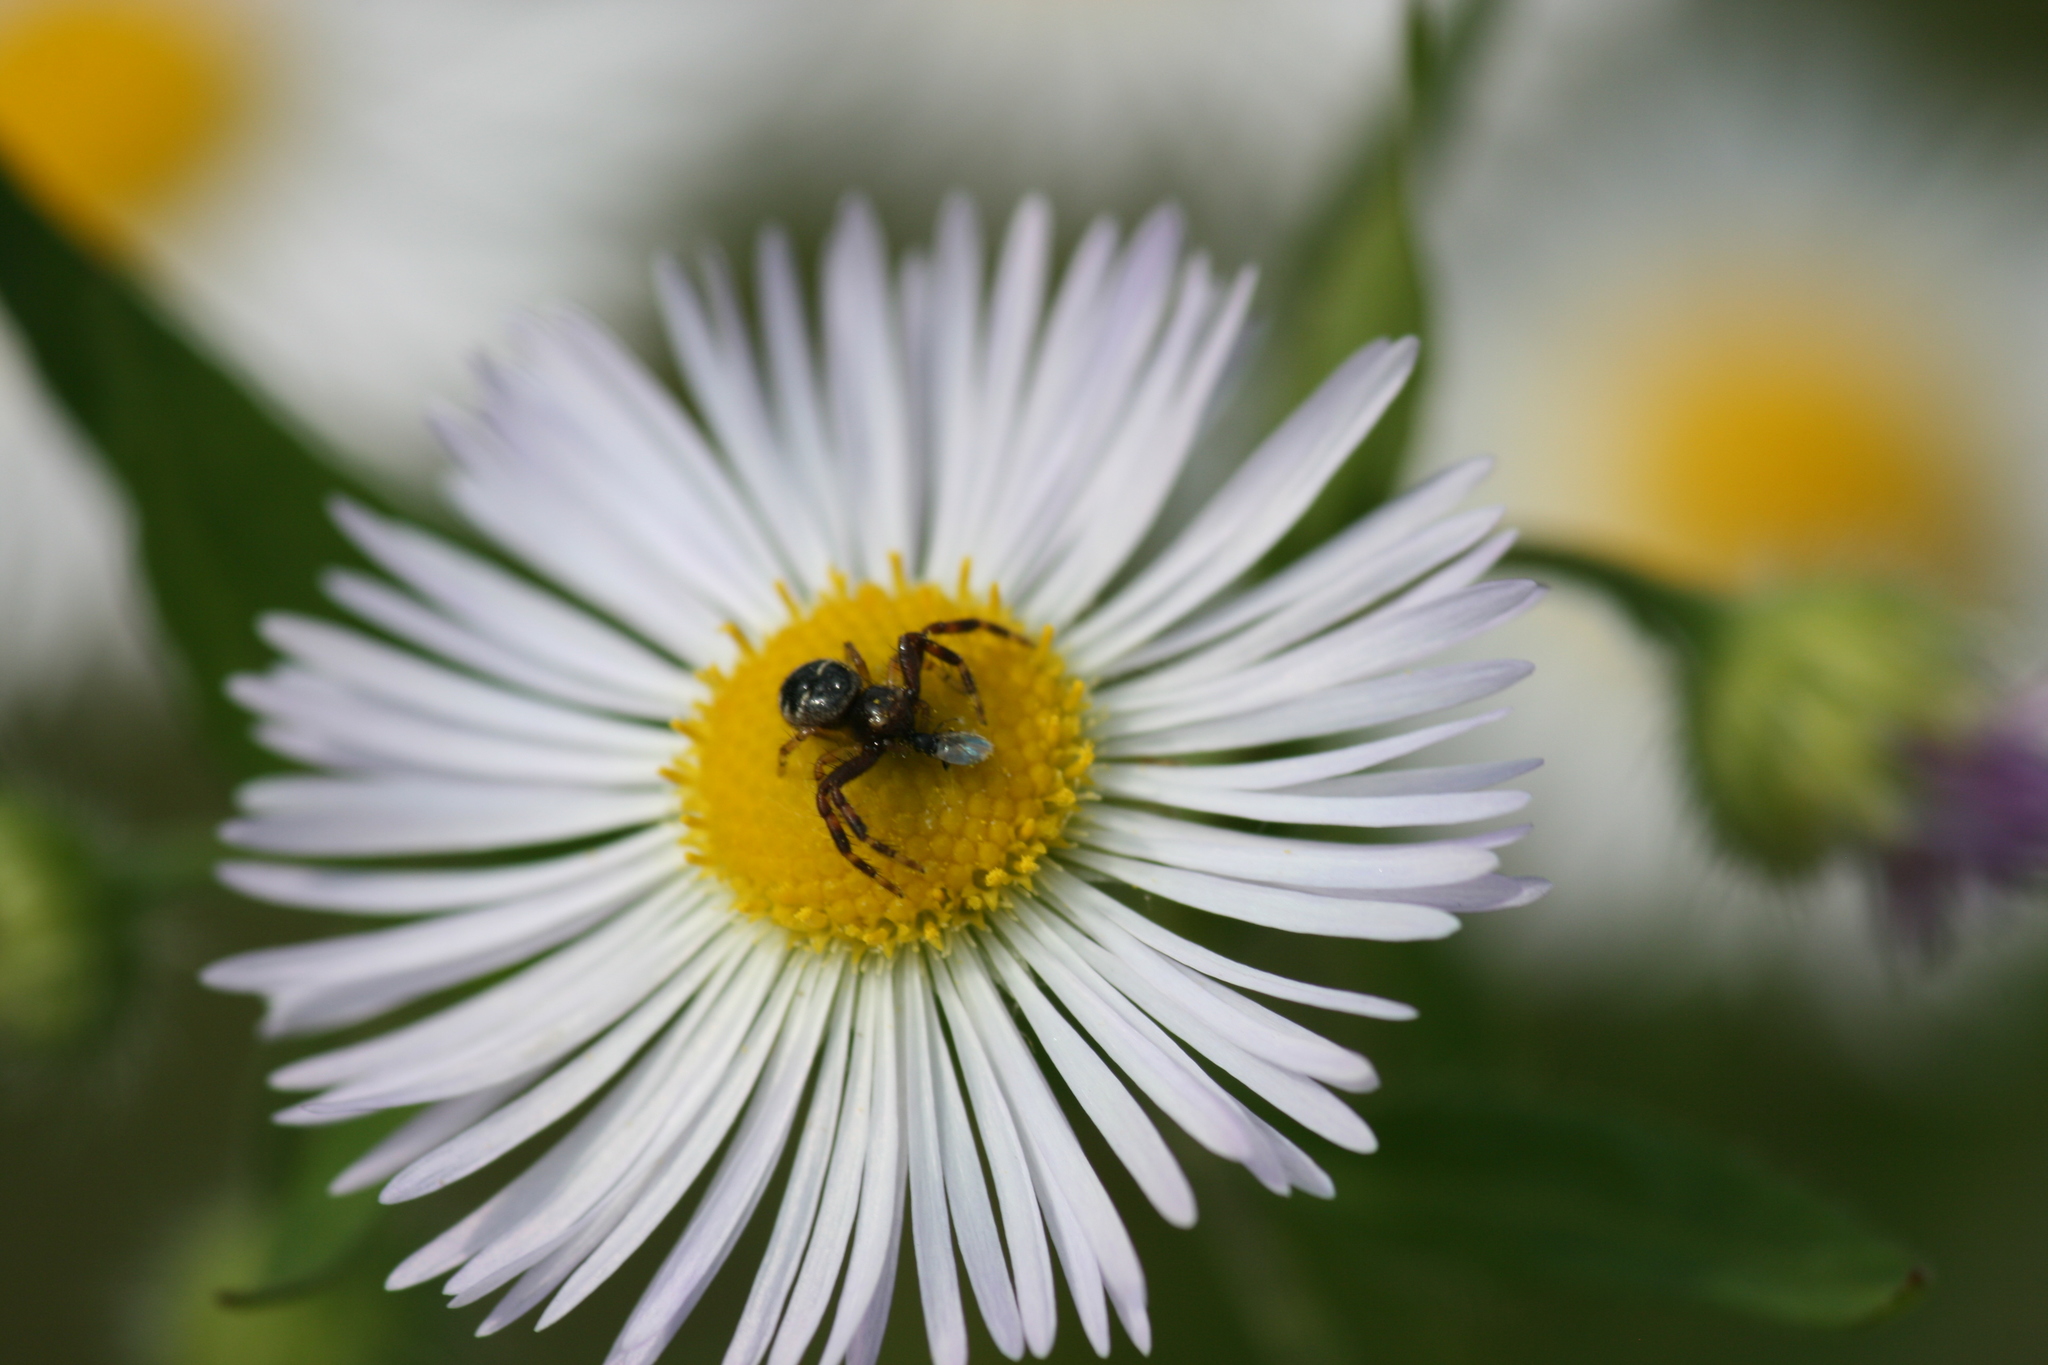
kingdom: Animalia
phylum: Arthropoda
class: Arachnida
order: Araneae
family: Thomisidae
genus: Synema
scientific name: Synema globosum
